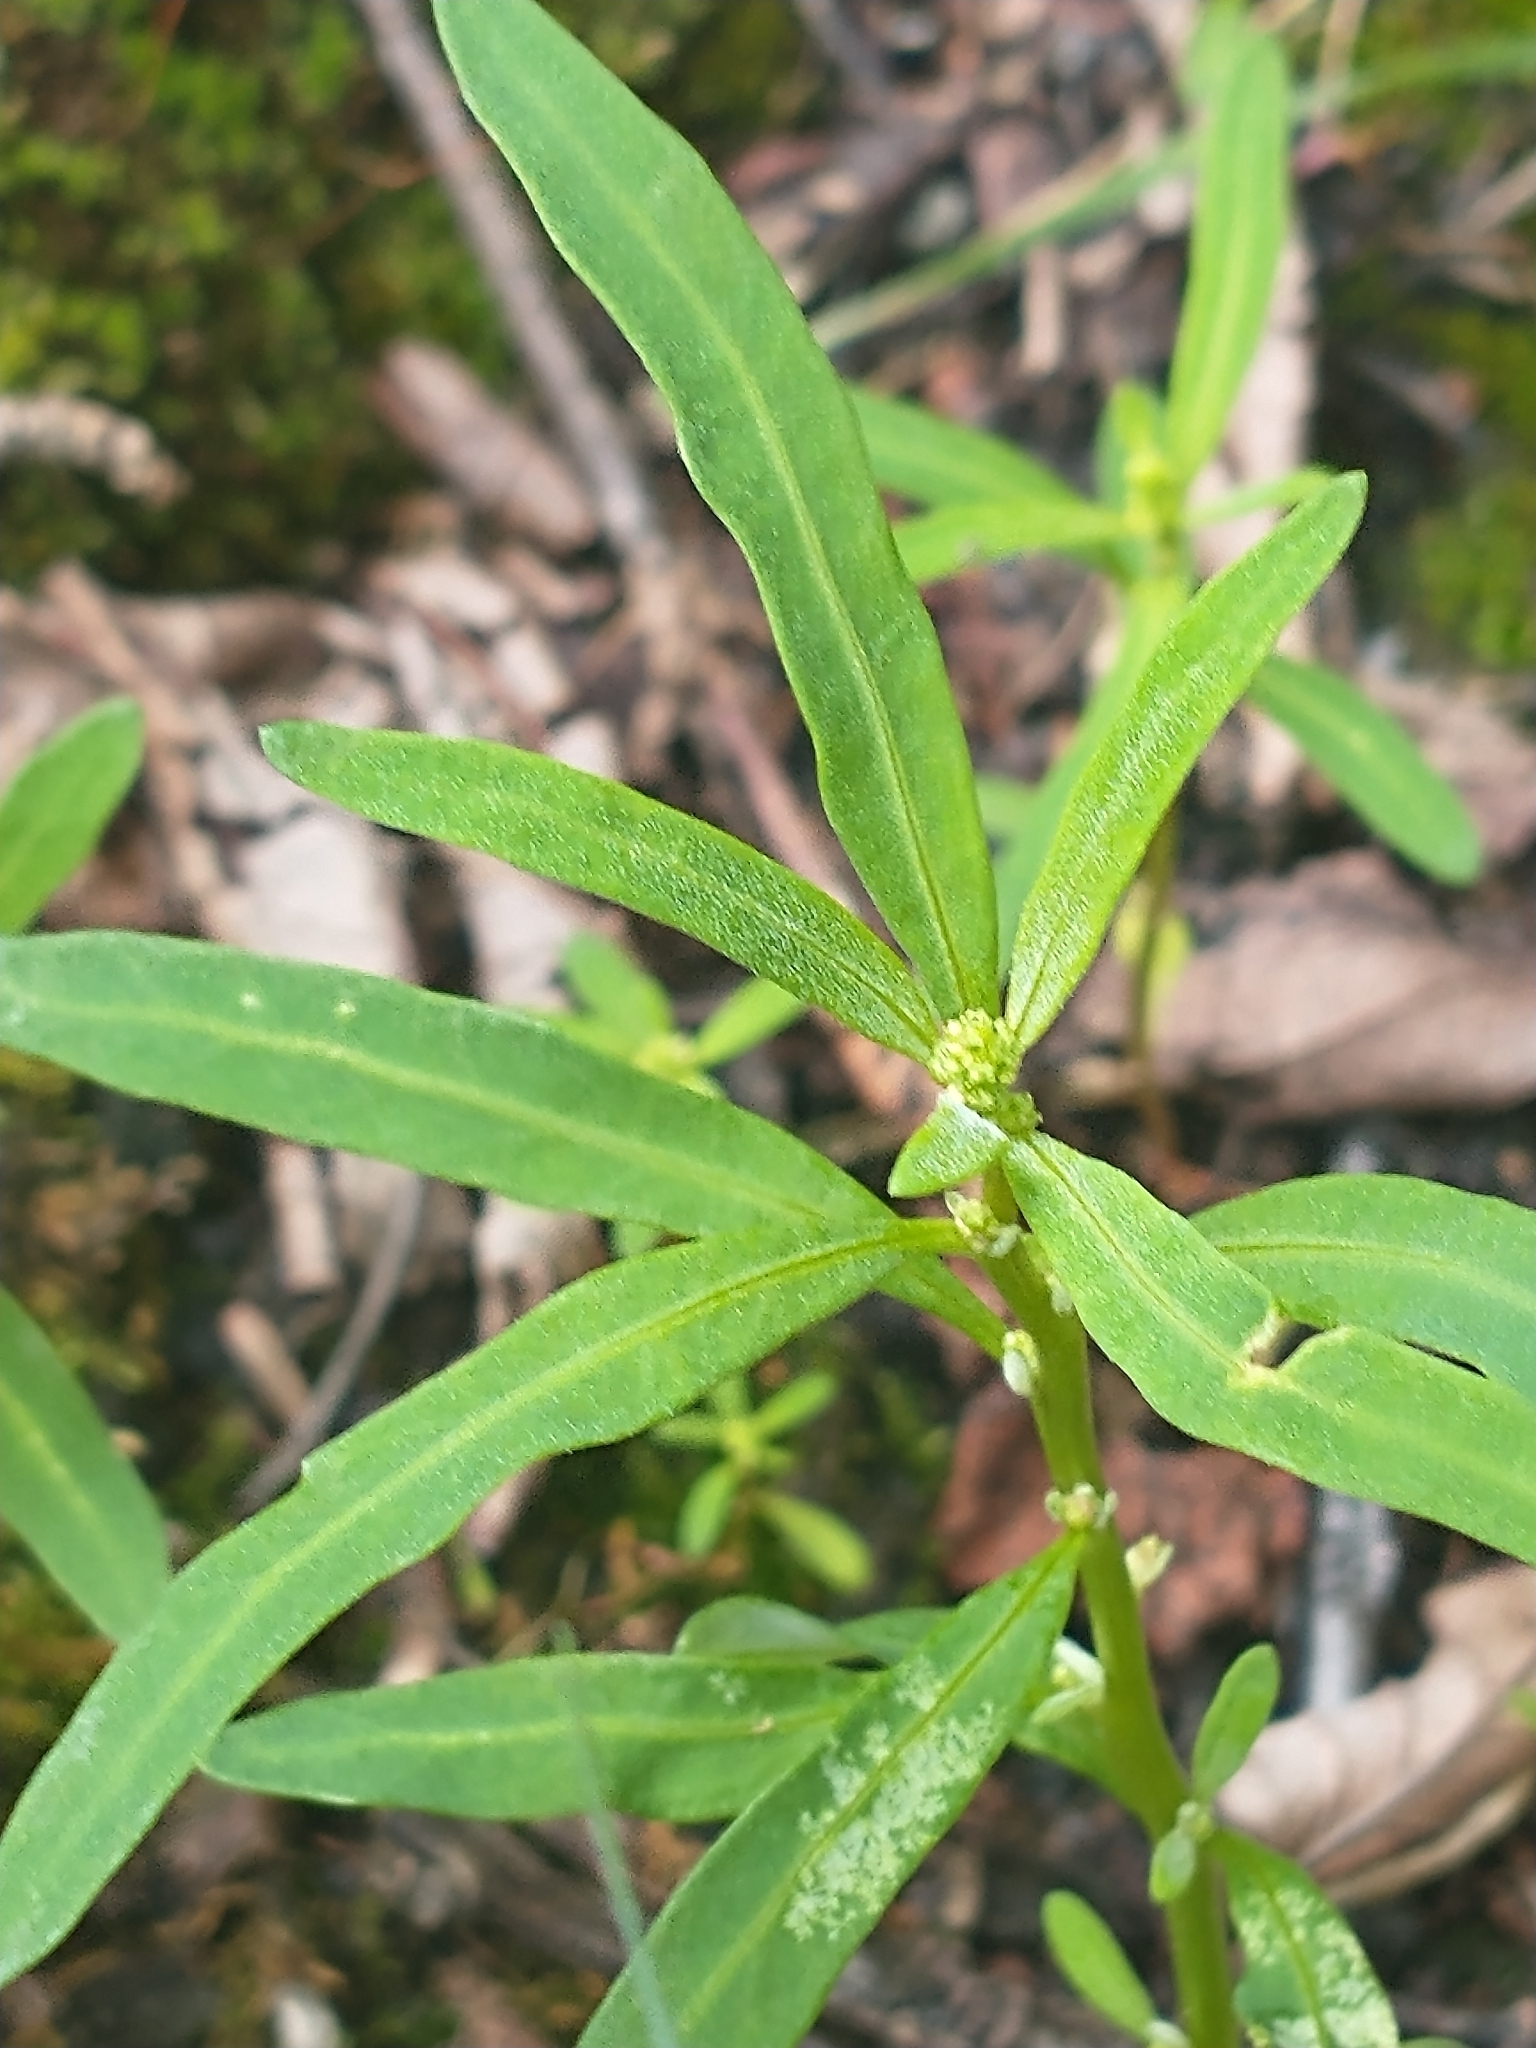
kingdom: Plantae
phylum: Tracheophyta
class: Magnoliopsida
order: Caryophyllales
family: Amaranthaceae
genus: Oxybasis
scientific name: Oxybasis glauca
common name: Glaucous goosefoot
